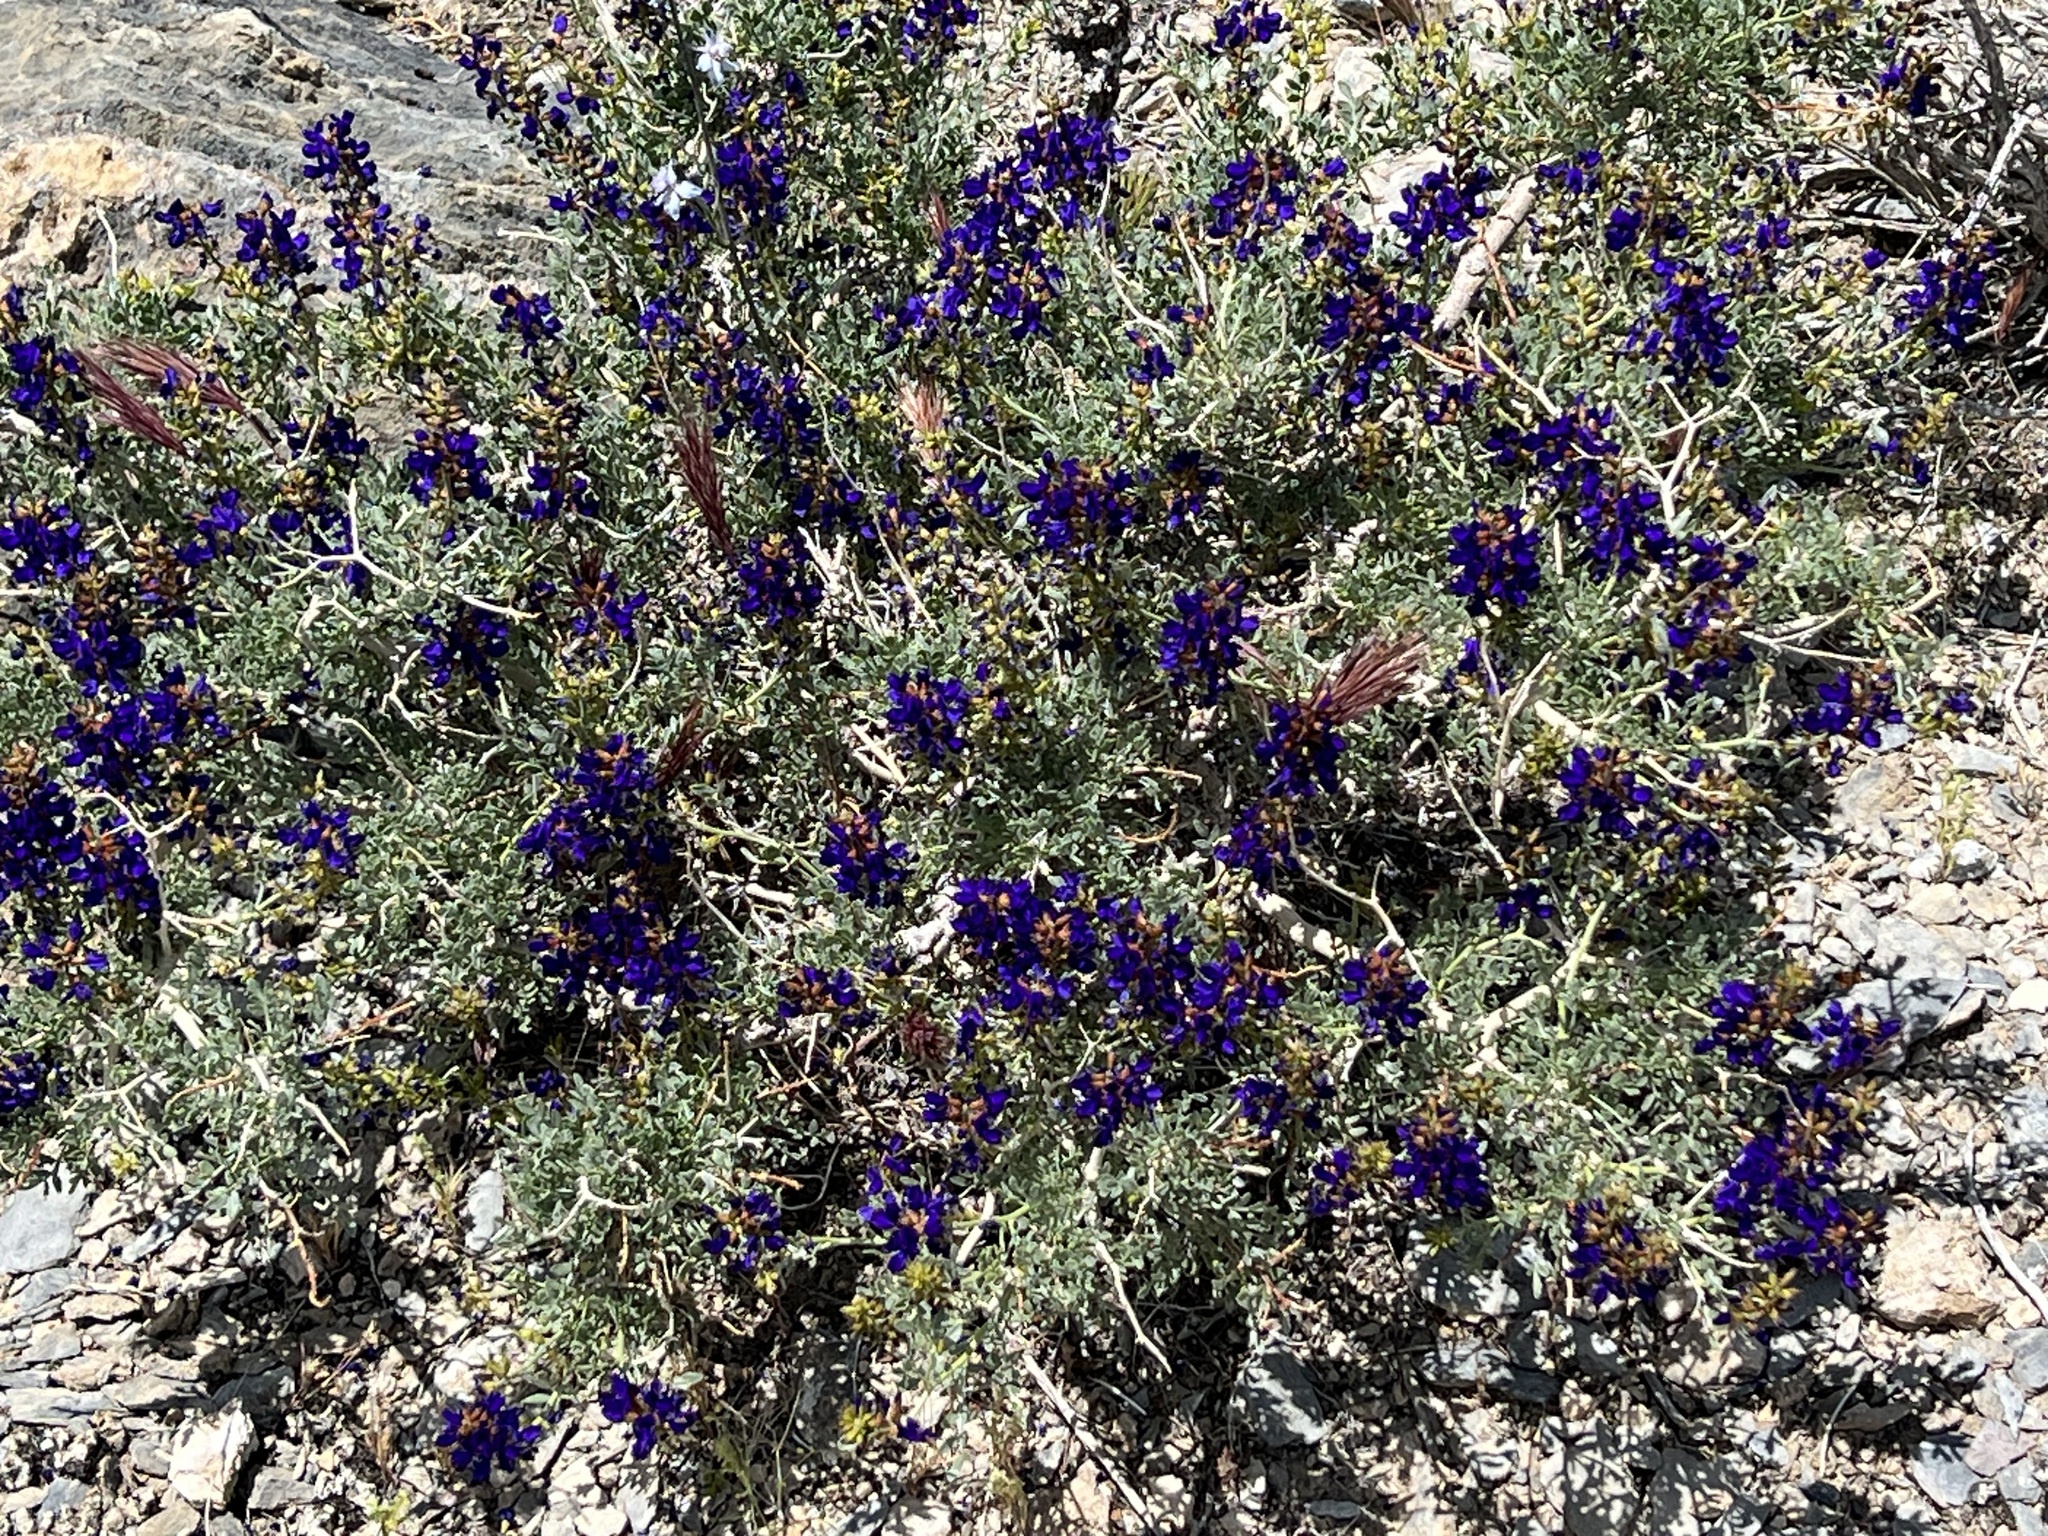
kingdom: Plantae
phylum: Tracheophyta
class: Magnoliopsida
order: Fabales
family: Fabaceae
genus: Psorothamnus
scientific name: Psorothamnus arborescens
